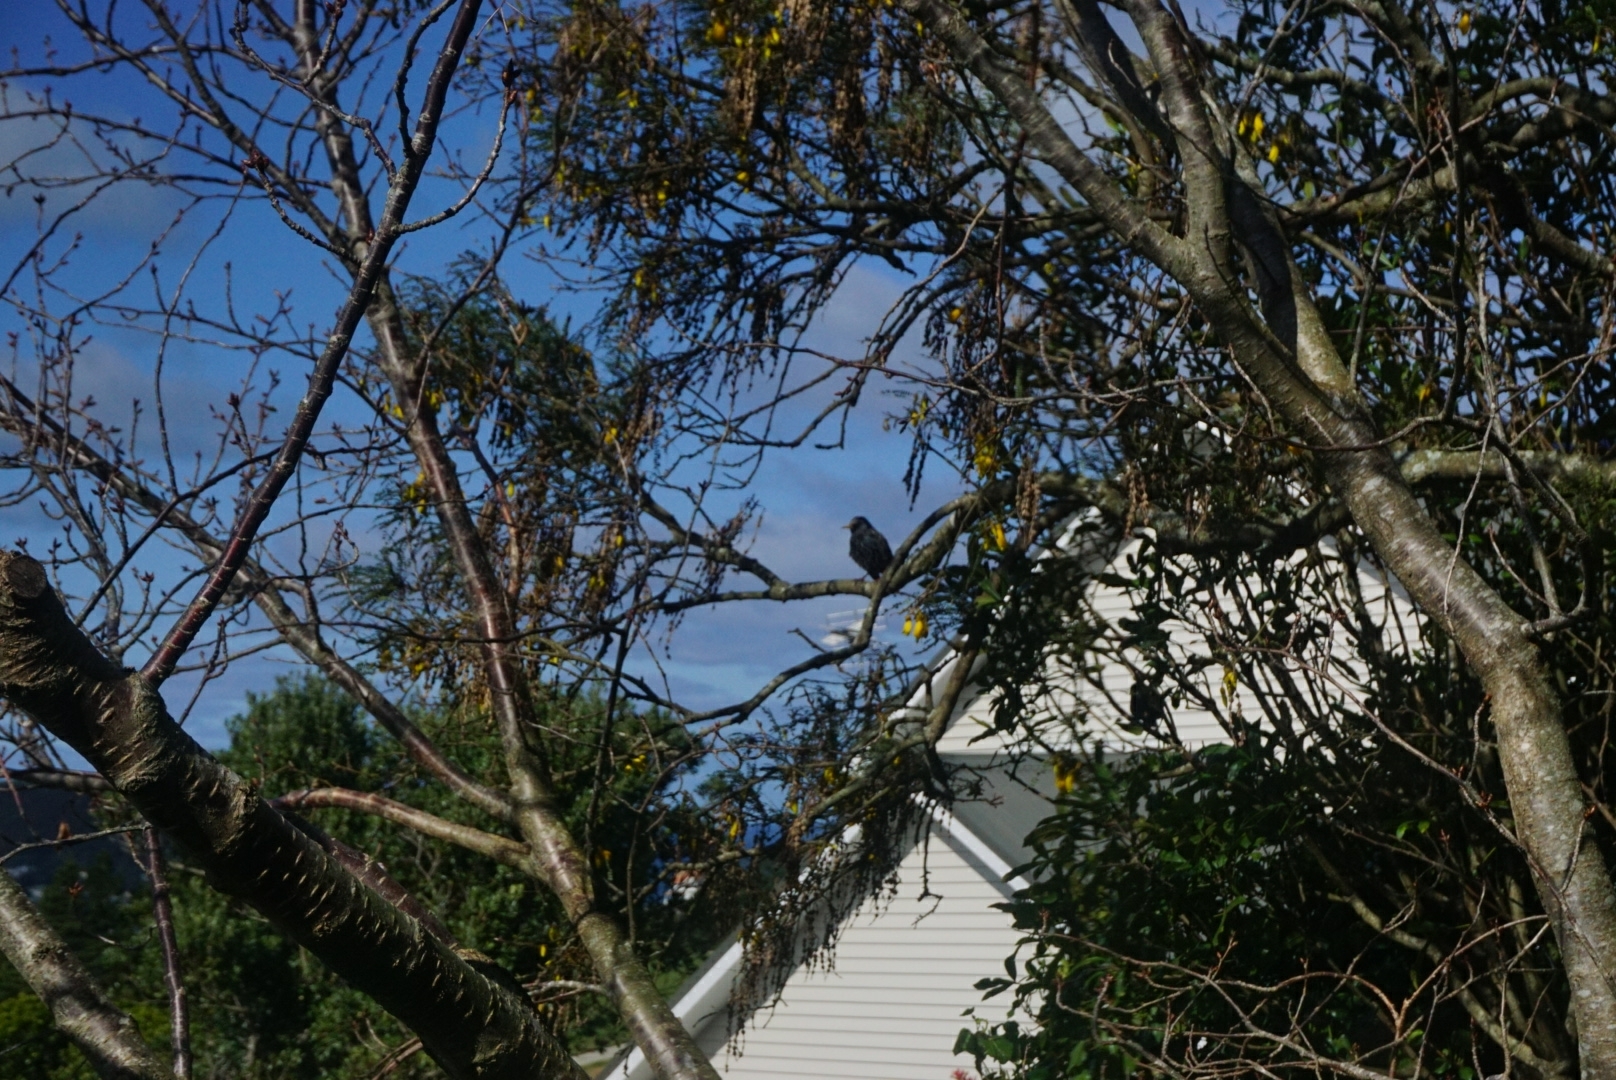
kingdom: Animalia
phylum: Chordata
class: Aves
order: Passeriformes
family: Sturnidae
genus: Sturnus
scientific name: Sturnus vulgaris
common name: Common starling
